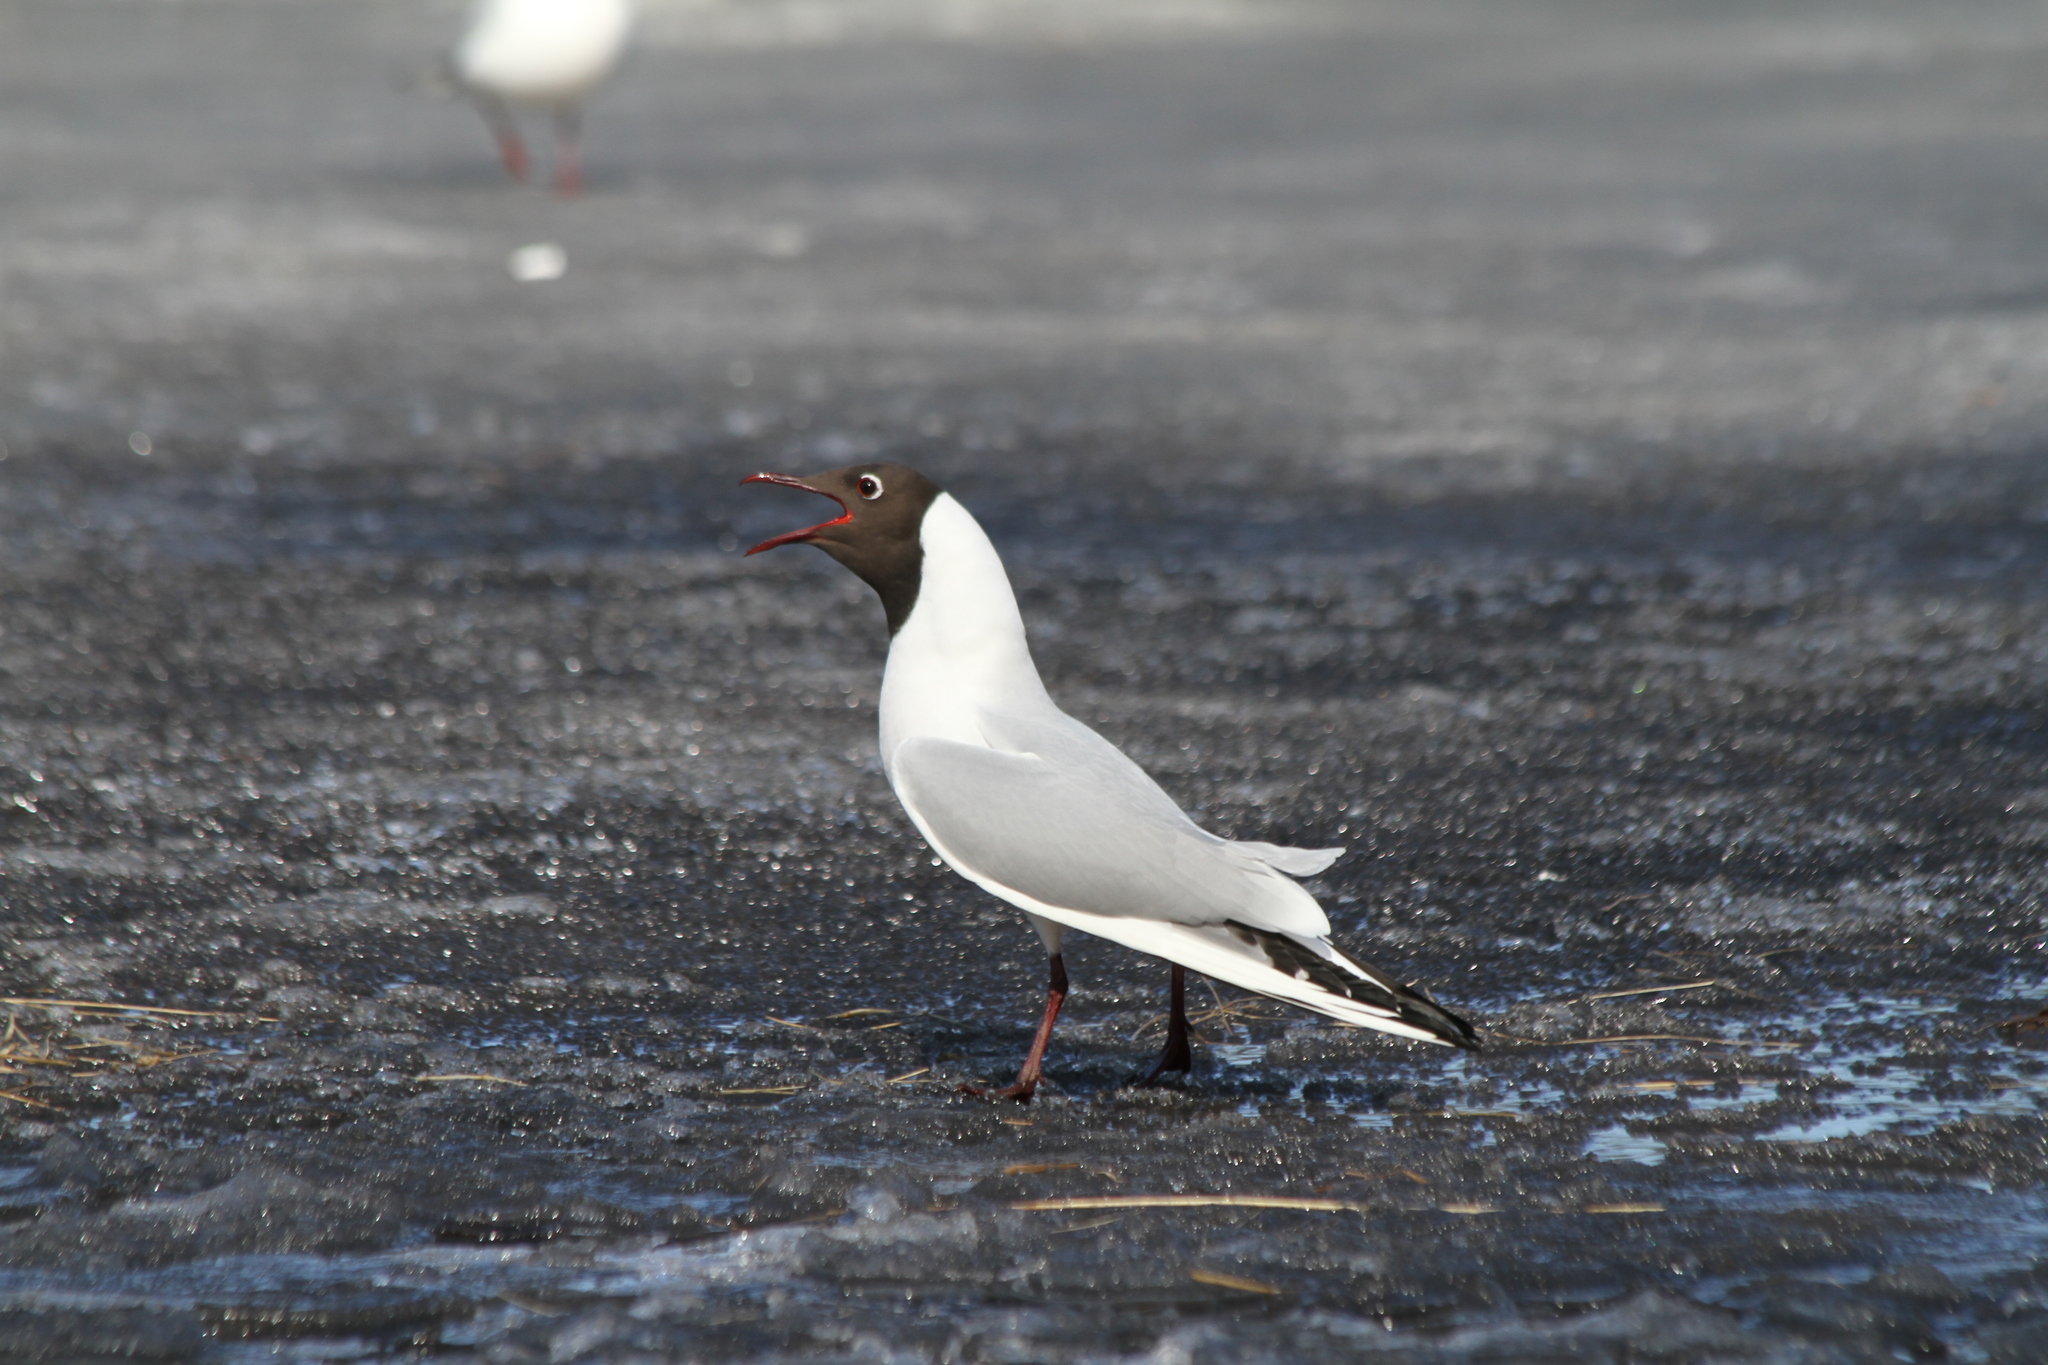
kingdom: Animalia
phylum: Chordata
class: Aves
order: Charadriiformes
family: Laridae
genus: Chroicocephalus
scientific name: Chroicocephalus ridibundus
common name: Black-headed gull
